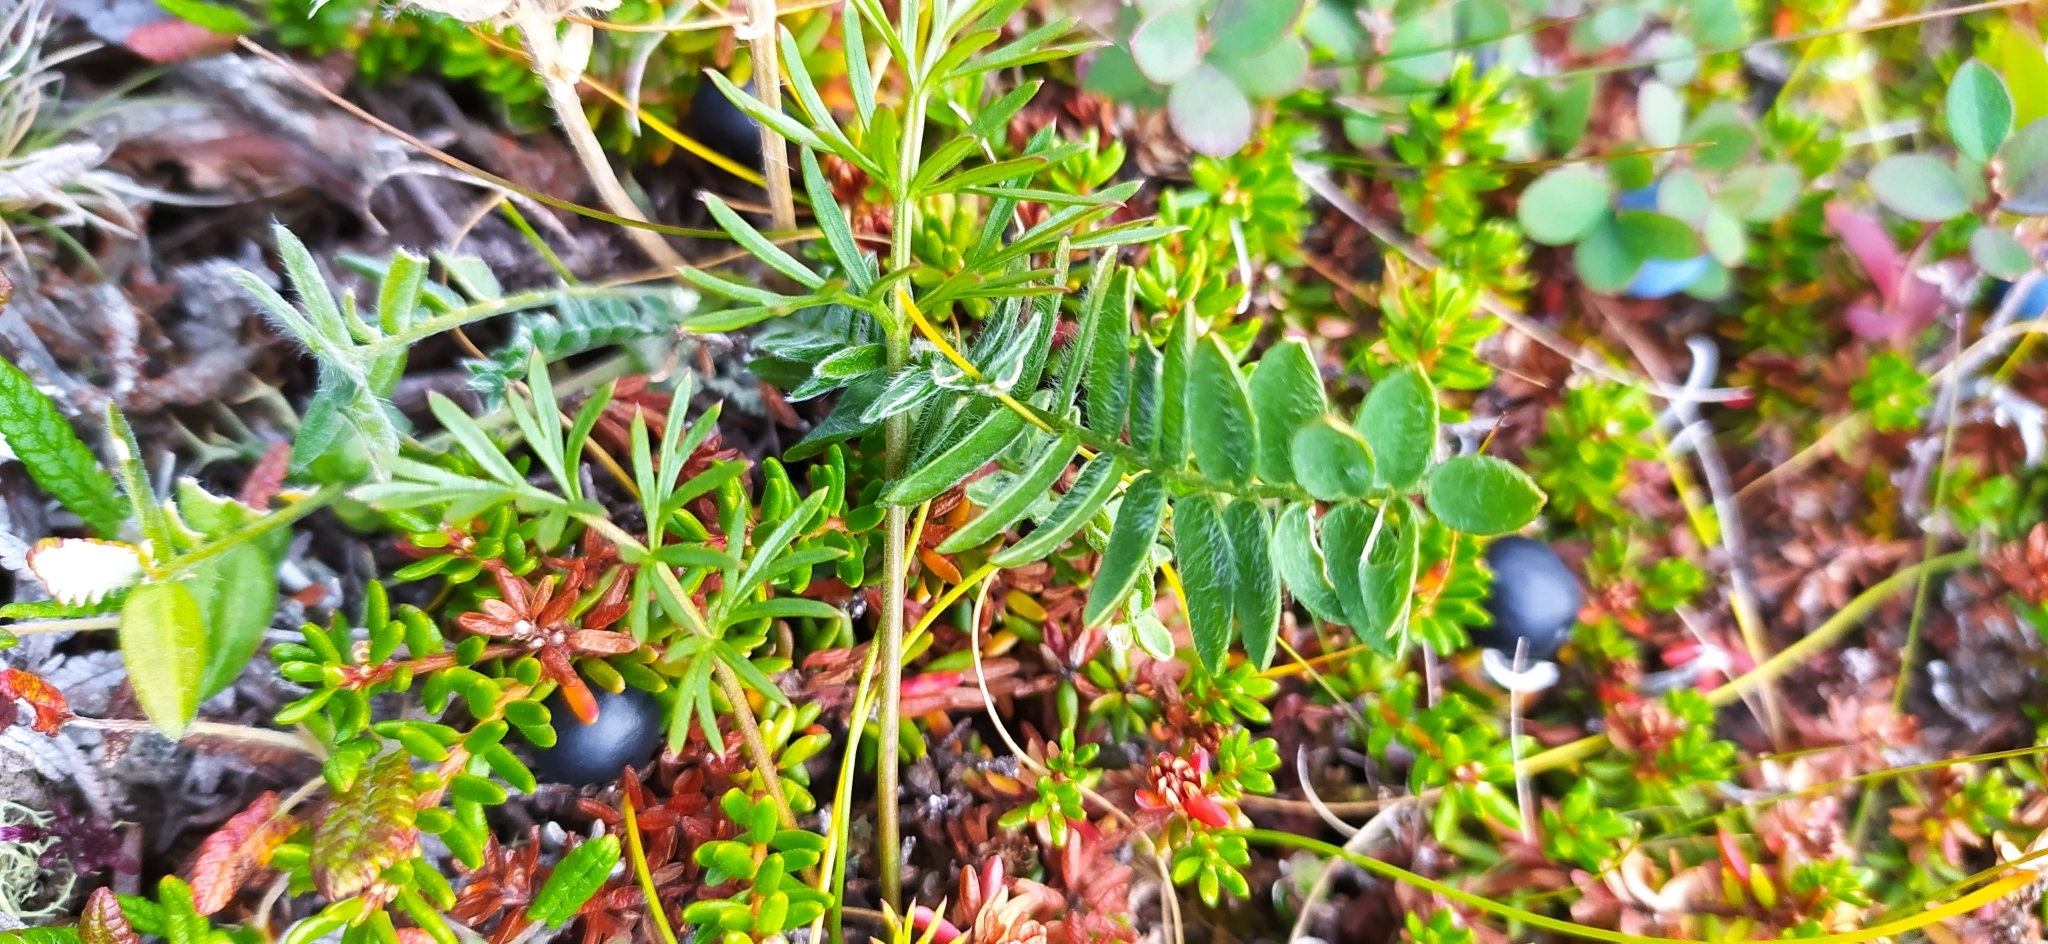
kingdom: Plantae
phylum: Tracheophyta
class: Magnoliopsida
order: Fabales
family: Fabaceae
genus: Oxytropis
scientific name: Oxytropis sordida
